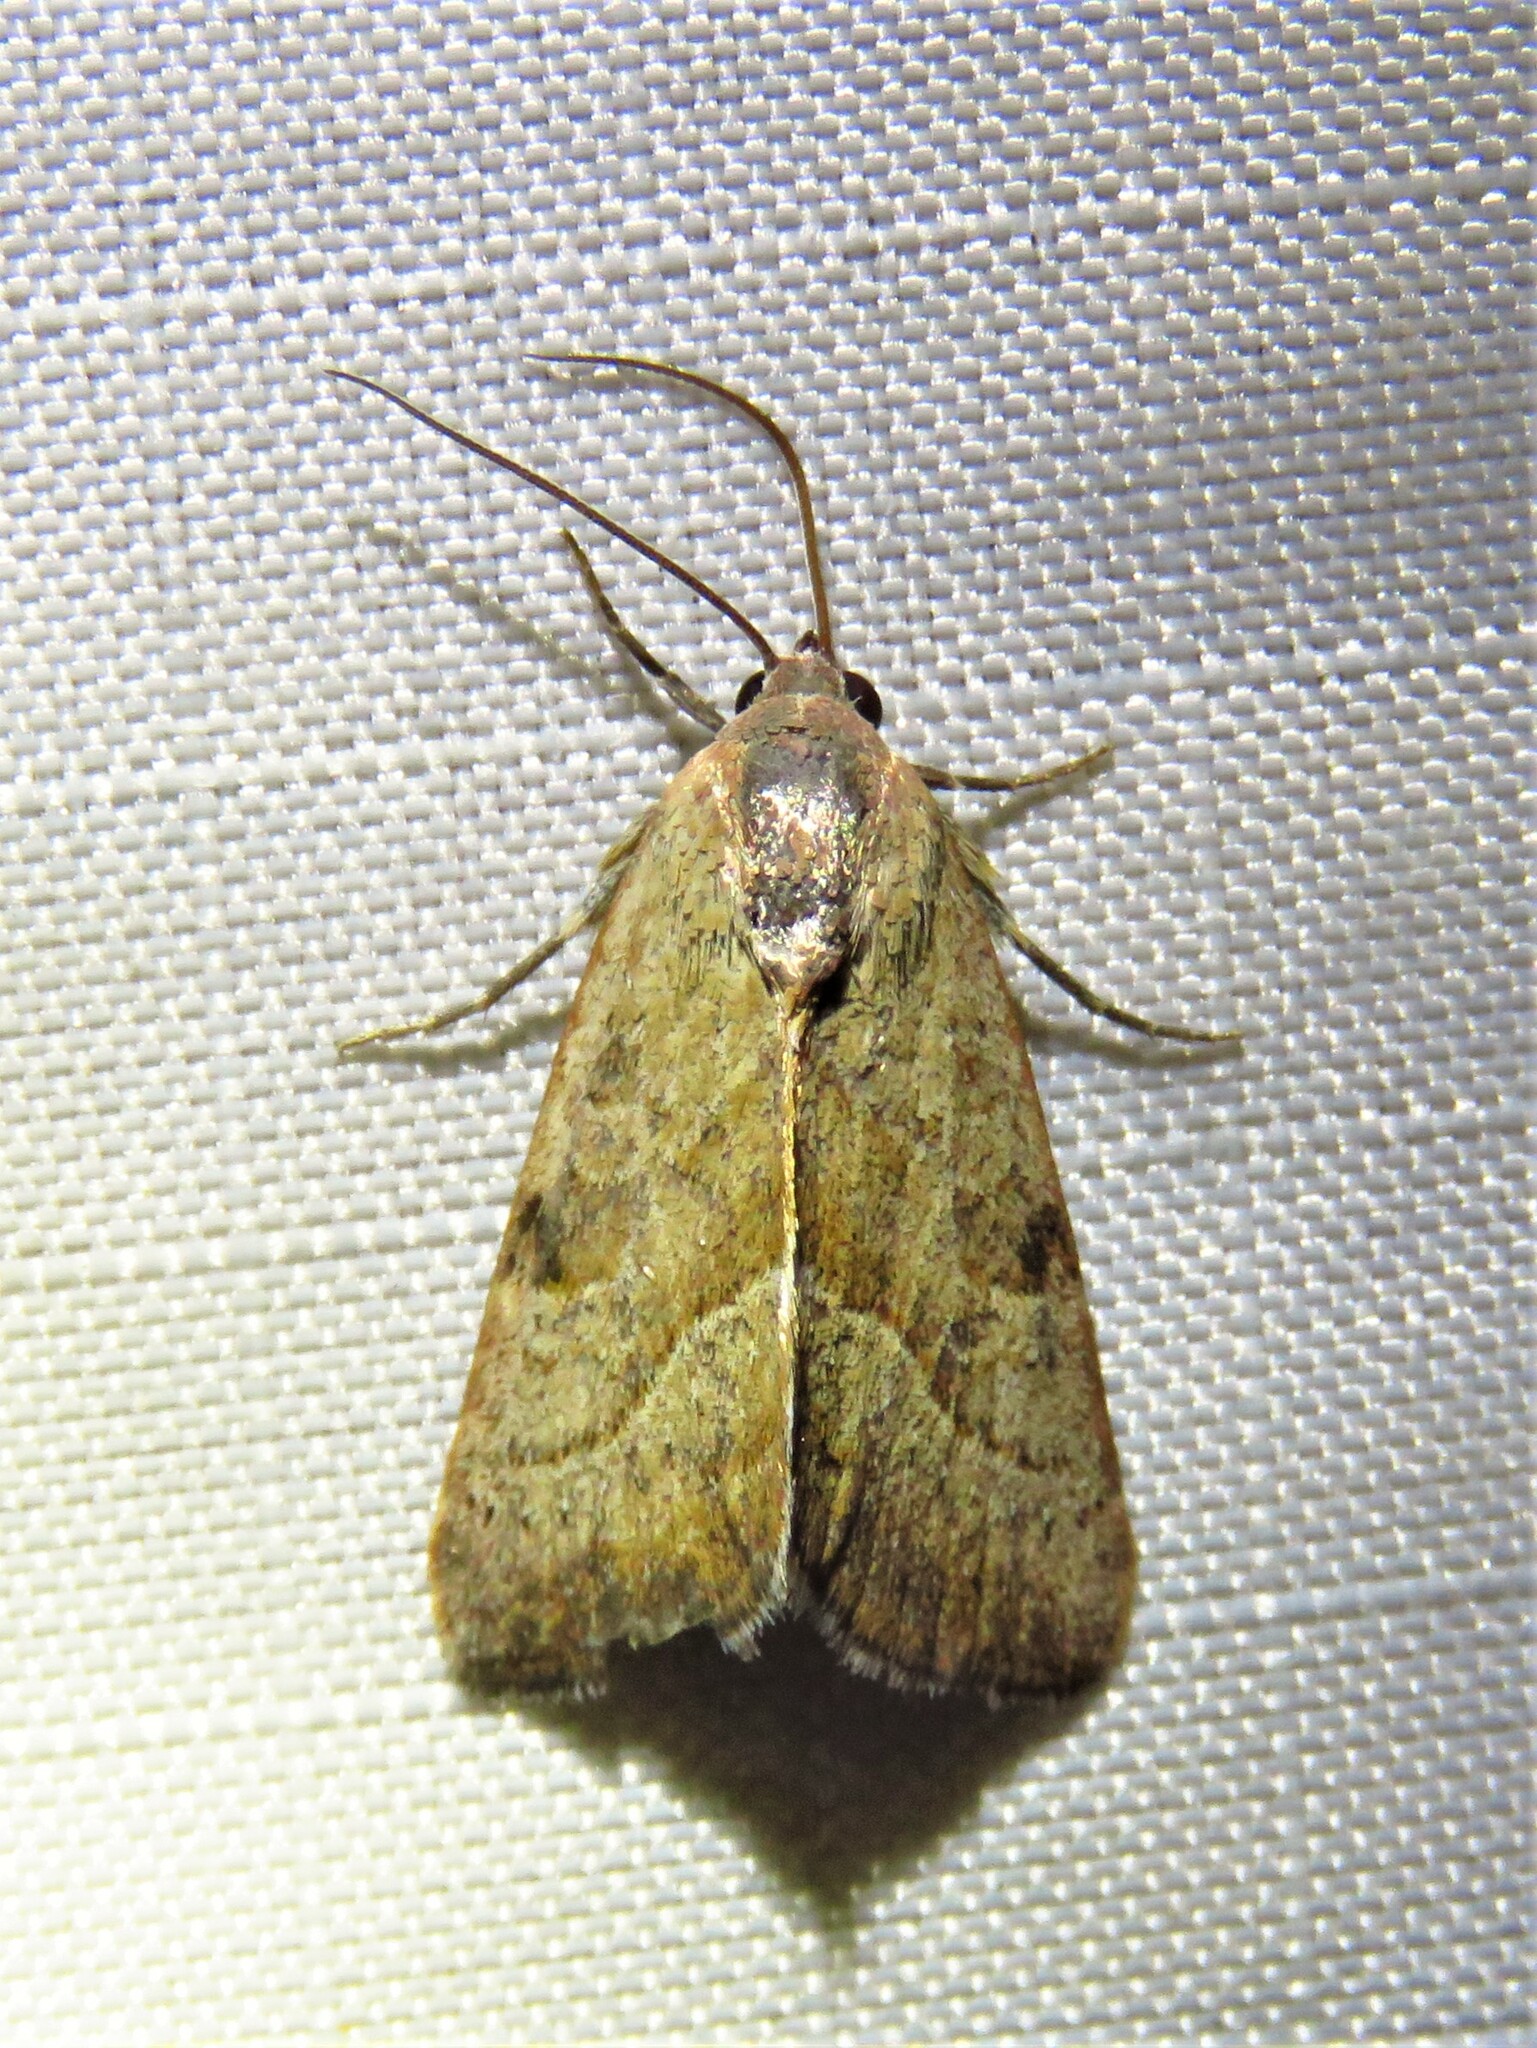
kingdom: Animalia
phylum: Arthropoda
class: Insecta
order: Lepidoptera
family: Noctuidae
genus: Galgula
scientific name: Galgula partita
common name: Wedgeling
